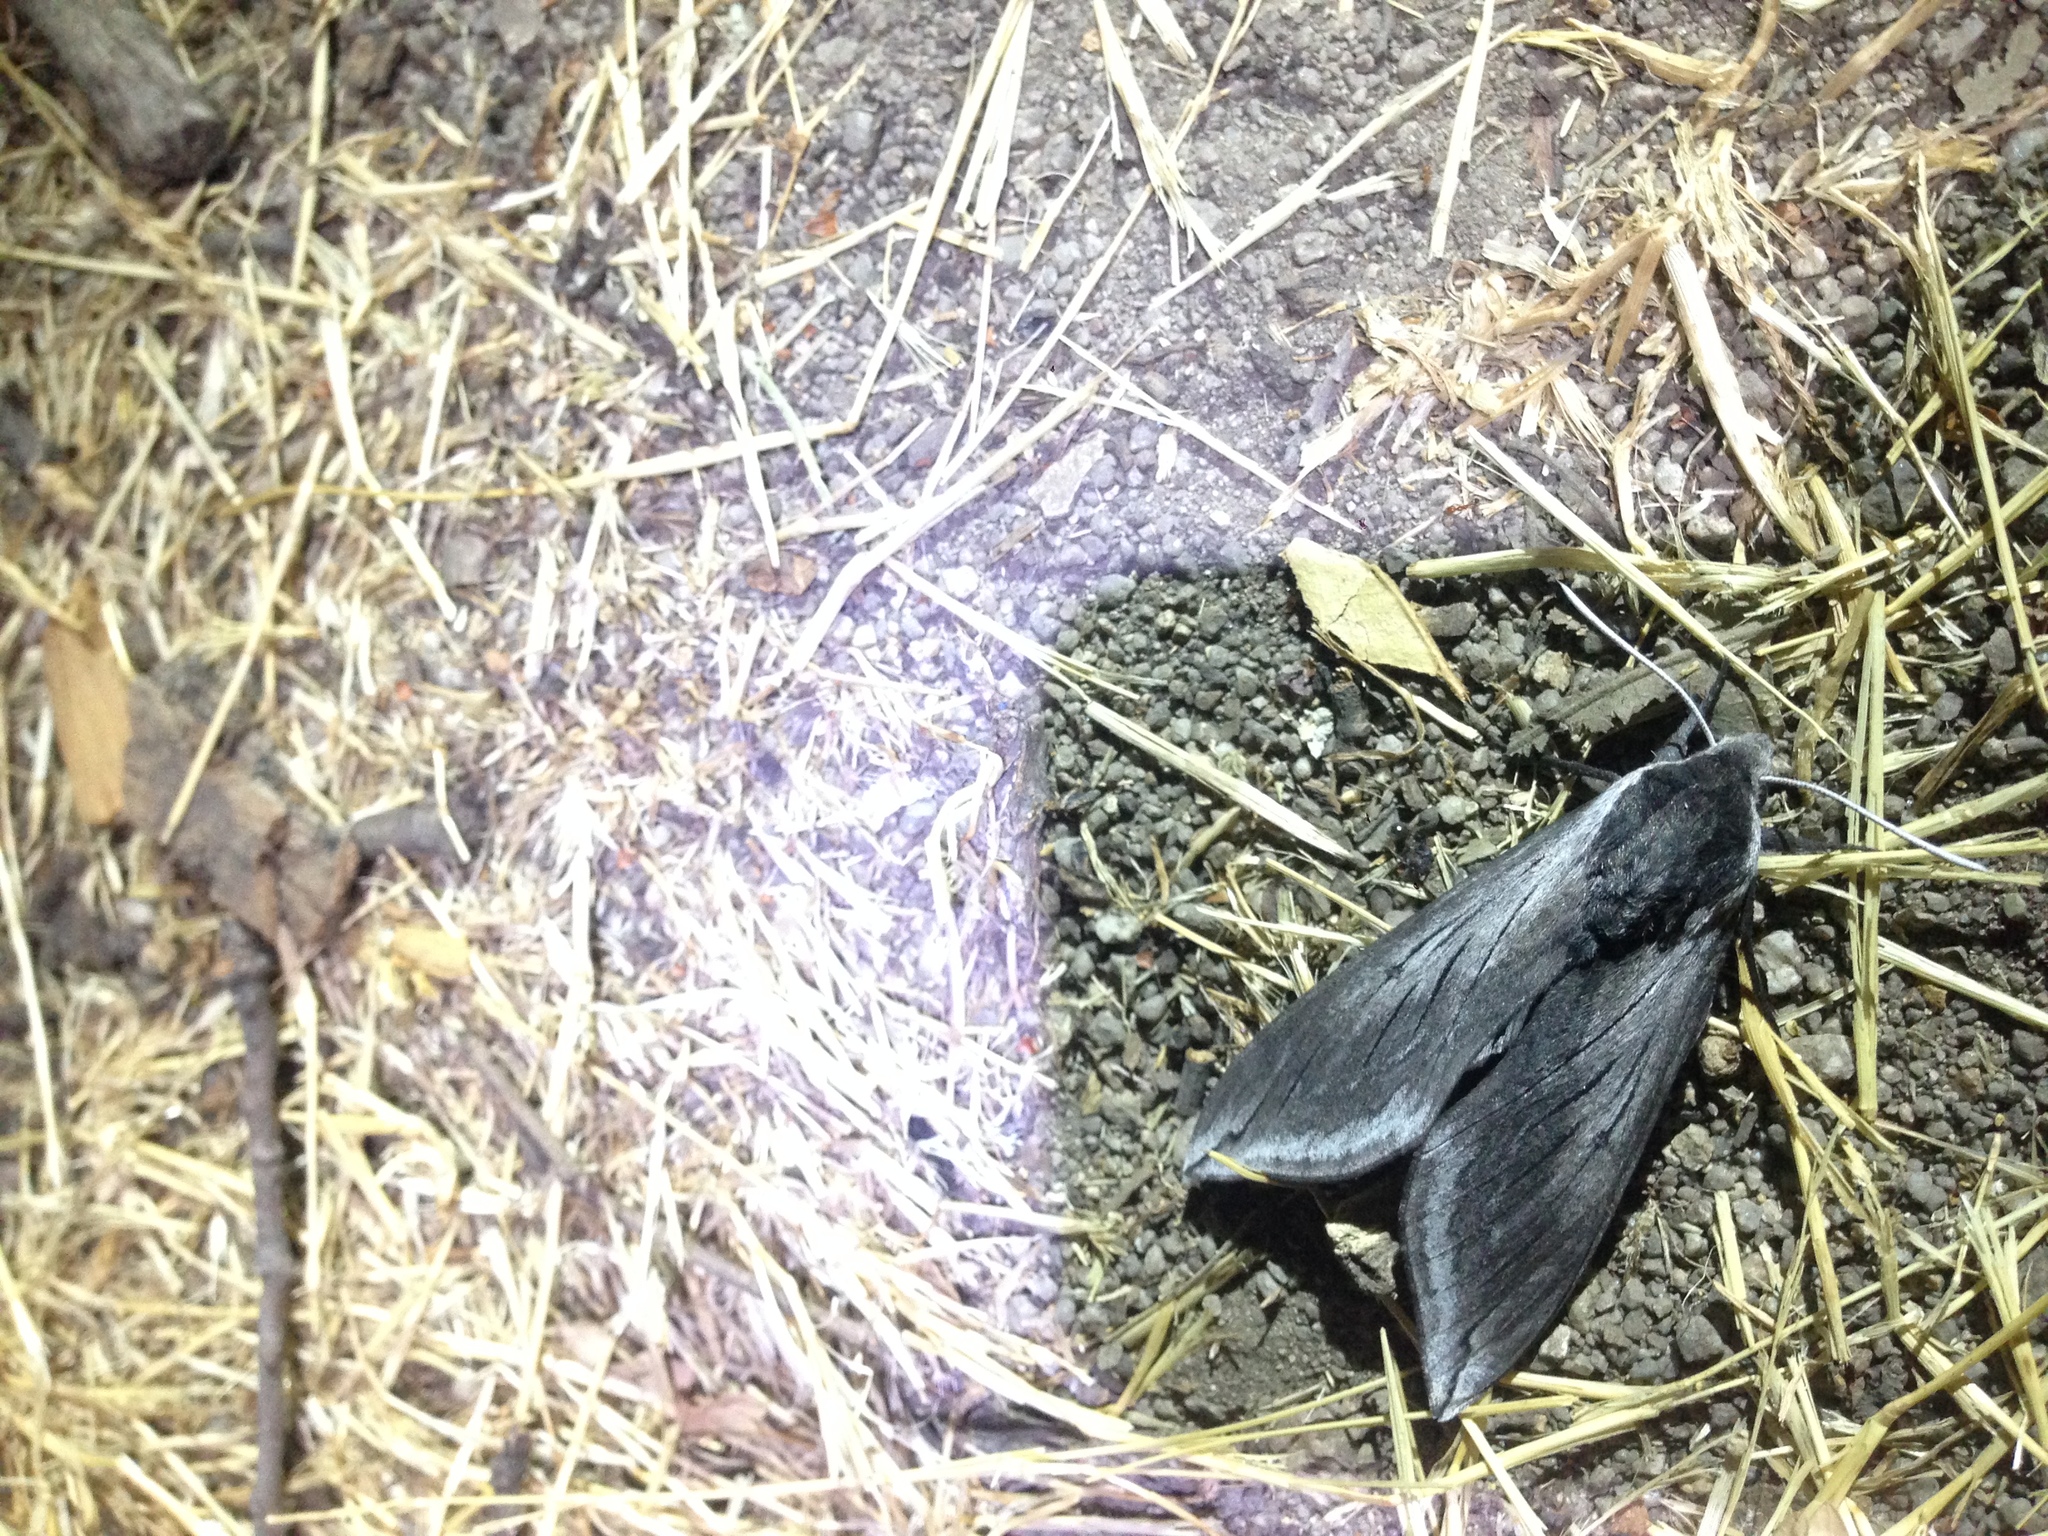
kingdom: Animalia
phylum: Arthropoda
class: Insecta
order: Lepidoptera
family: Sphingidae
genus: Sphinx
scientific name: Sphinx perelegans
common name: Elegant sphinx
